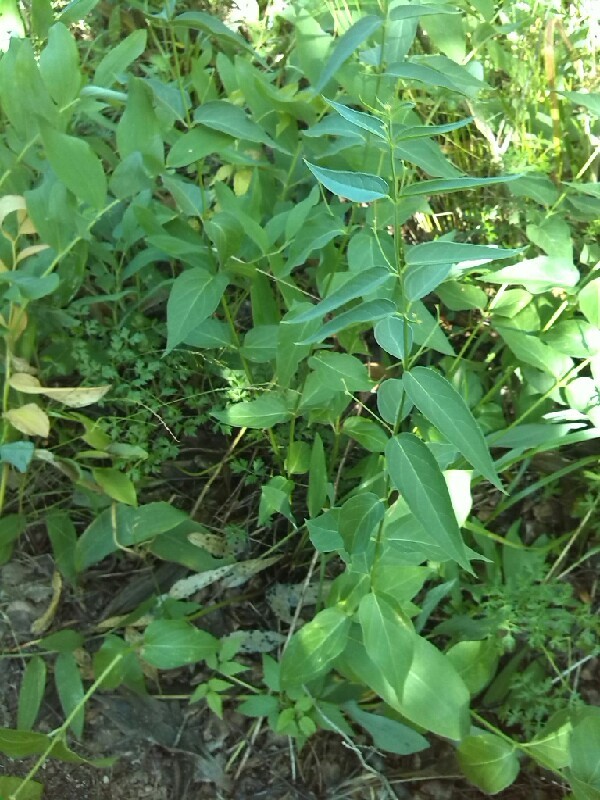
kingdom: Plantae
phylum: Tracheophyta
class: Magnoliopsida
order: Gentianales
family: Apocynaceae
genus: Vincetoxicum
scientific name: Vincetoxicum hirundinaria
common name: White swallowwort
